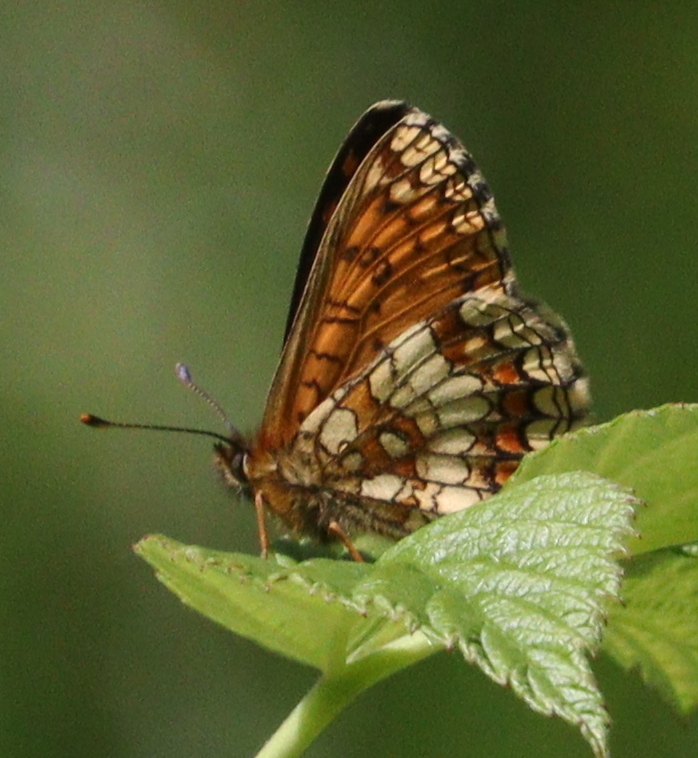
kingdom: Animalia
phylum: Arthropoda
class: Insecta
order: Lepidoptera
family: Nymphalidae
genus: Melitaea
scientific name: Melitaea athalia
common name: Heath fritillary
